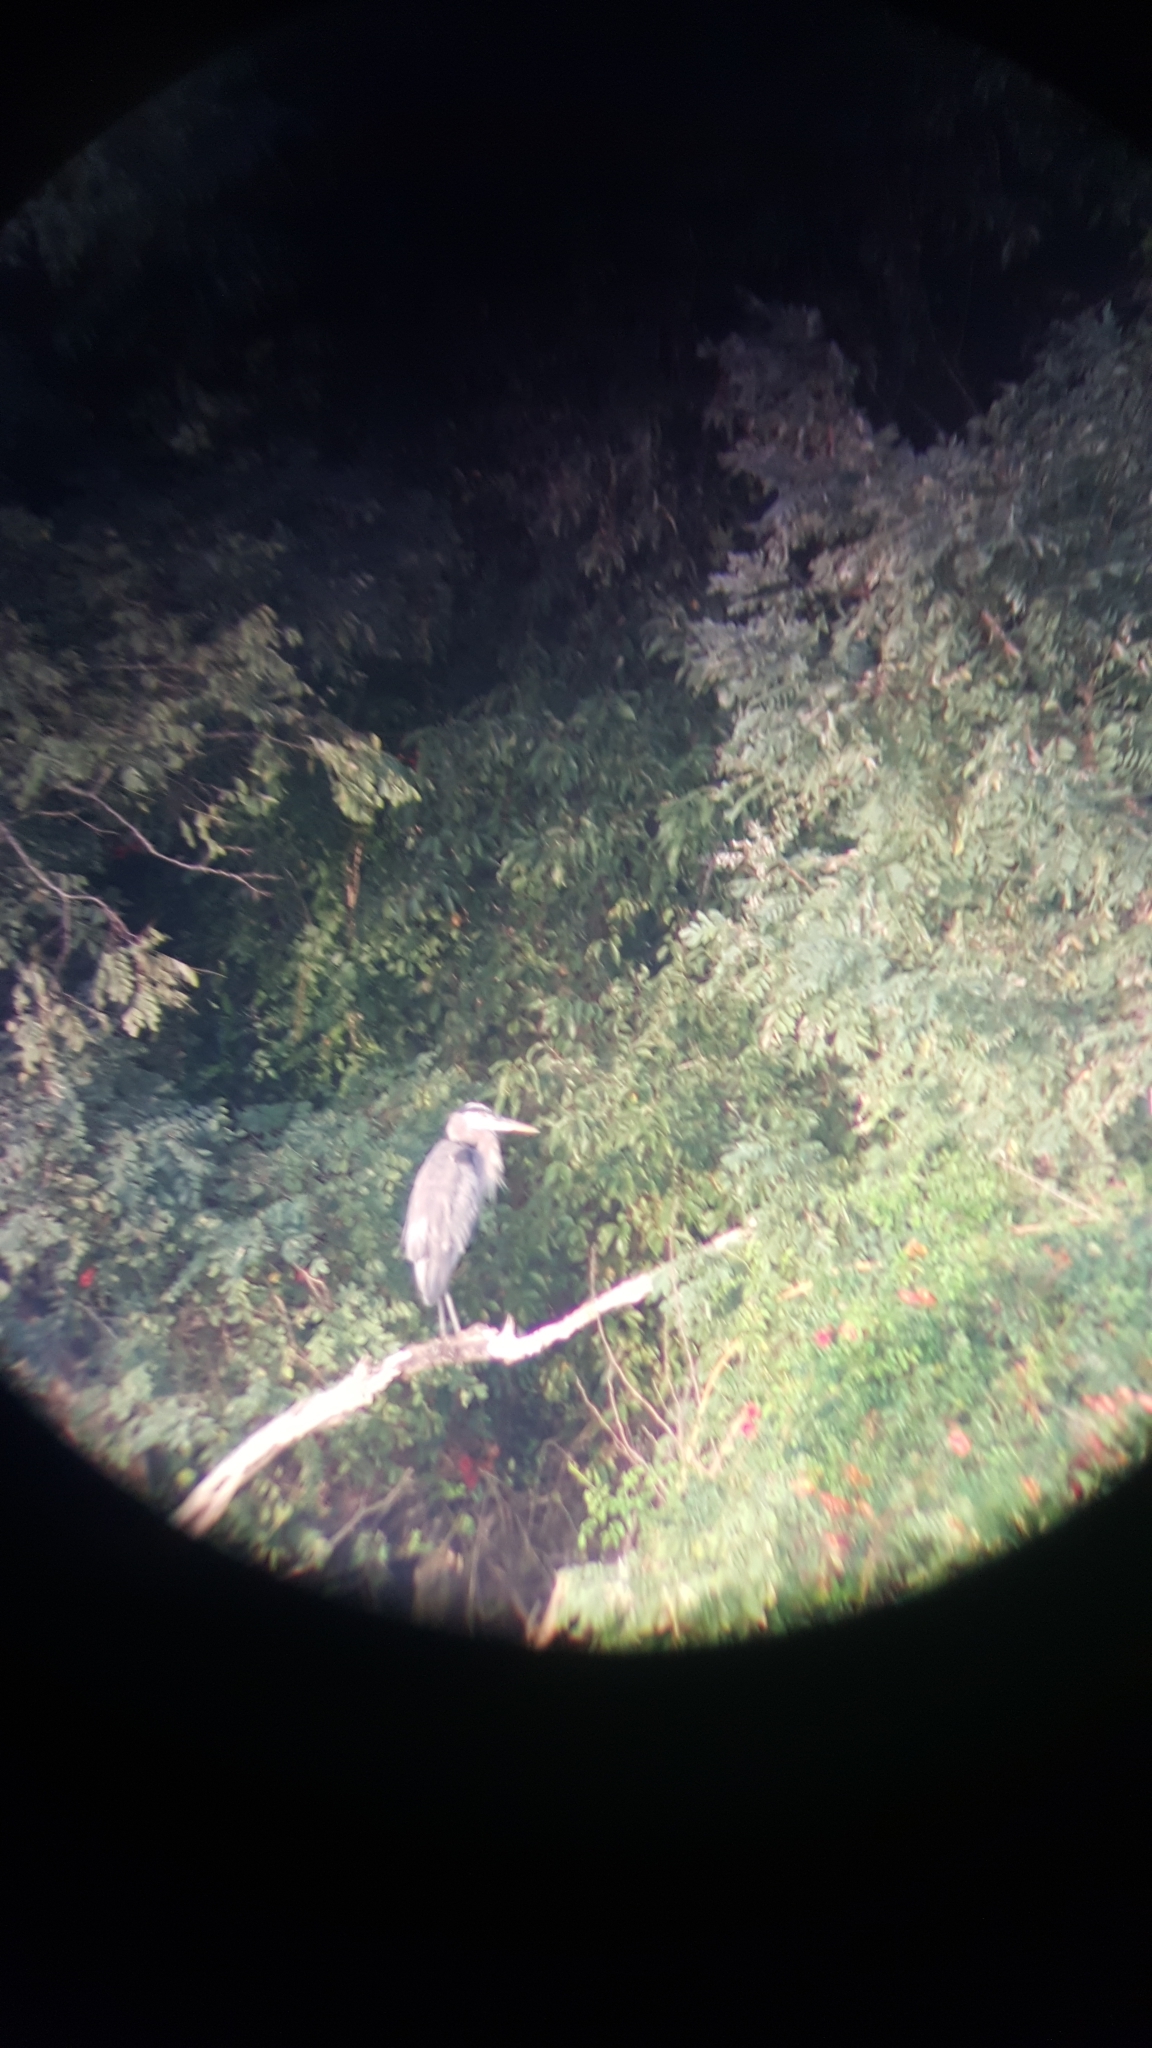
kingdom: Animalia
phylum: Chordata
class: Aves
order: Pelecaniformes
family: Ardeidae
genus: Ardea
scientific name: Ardea herodias
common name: Great blue heron
